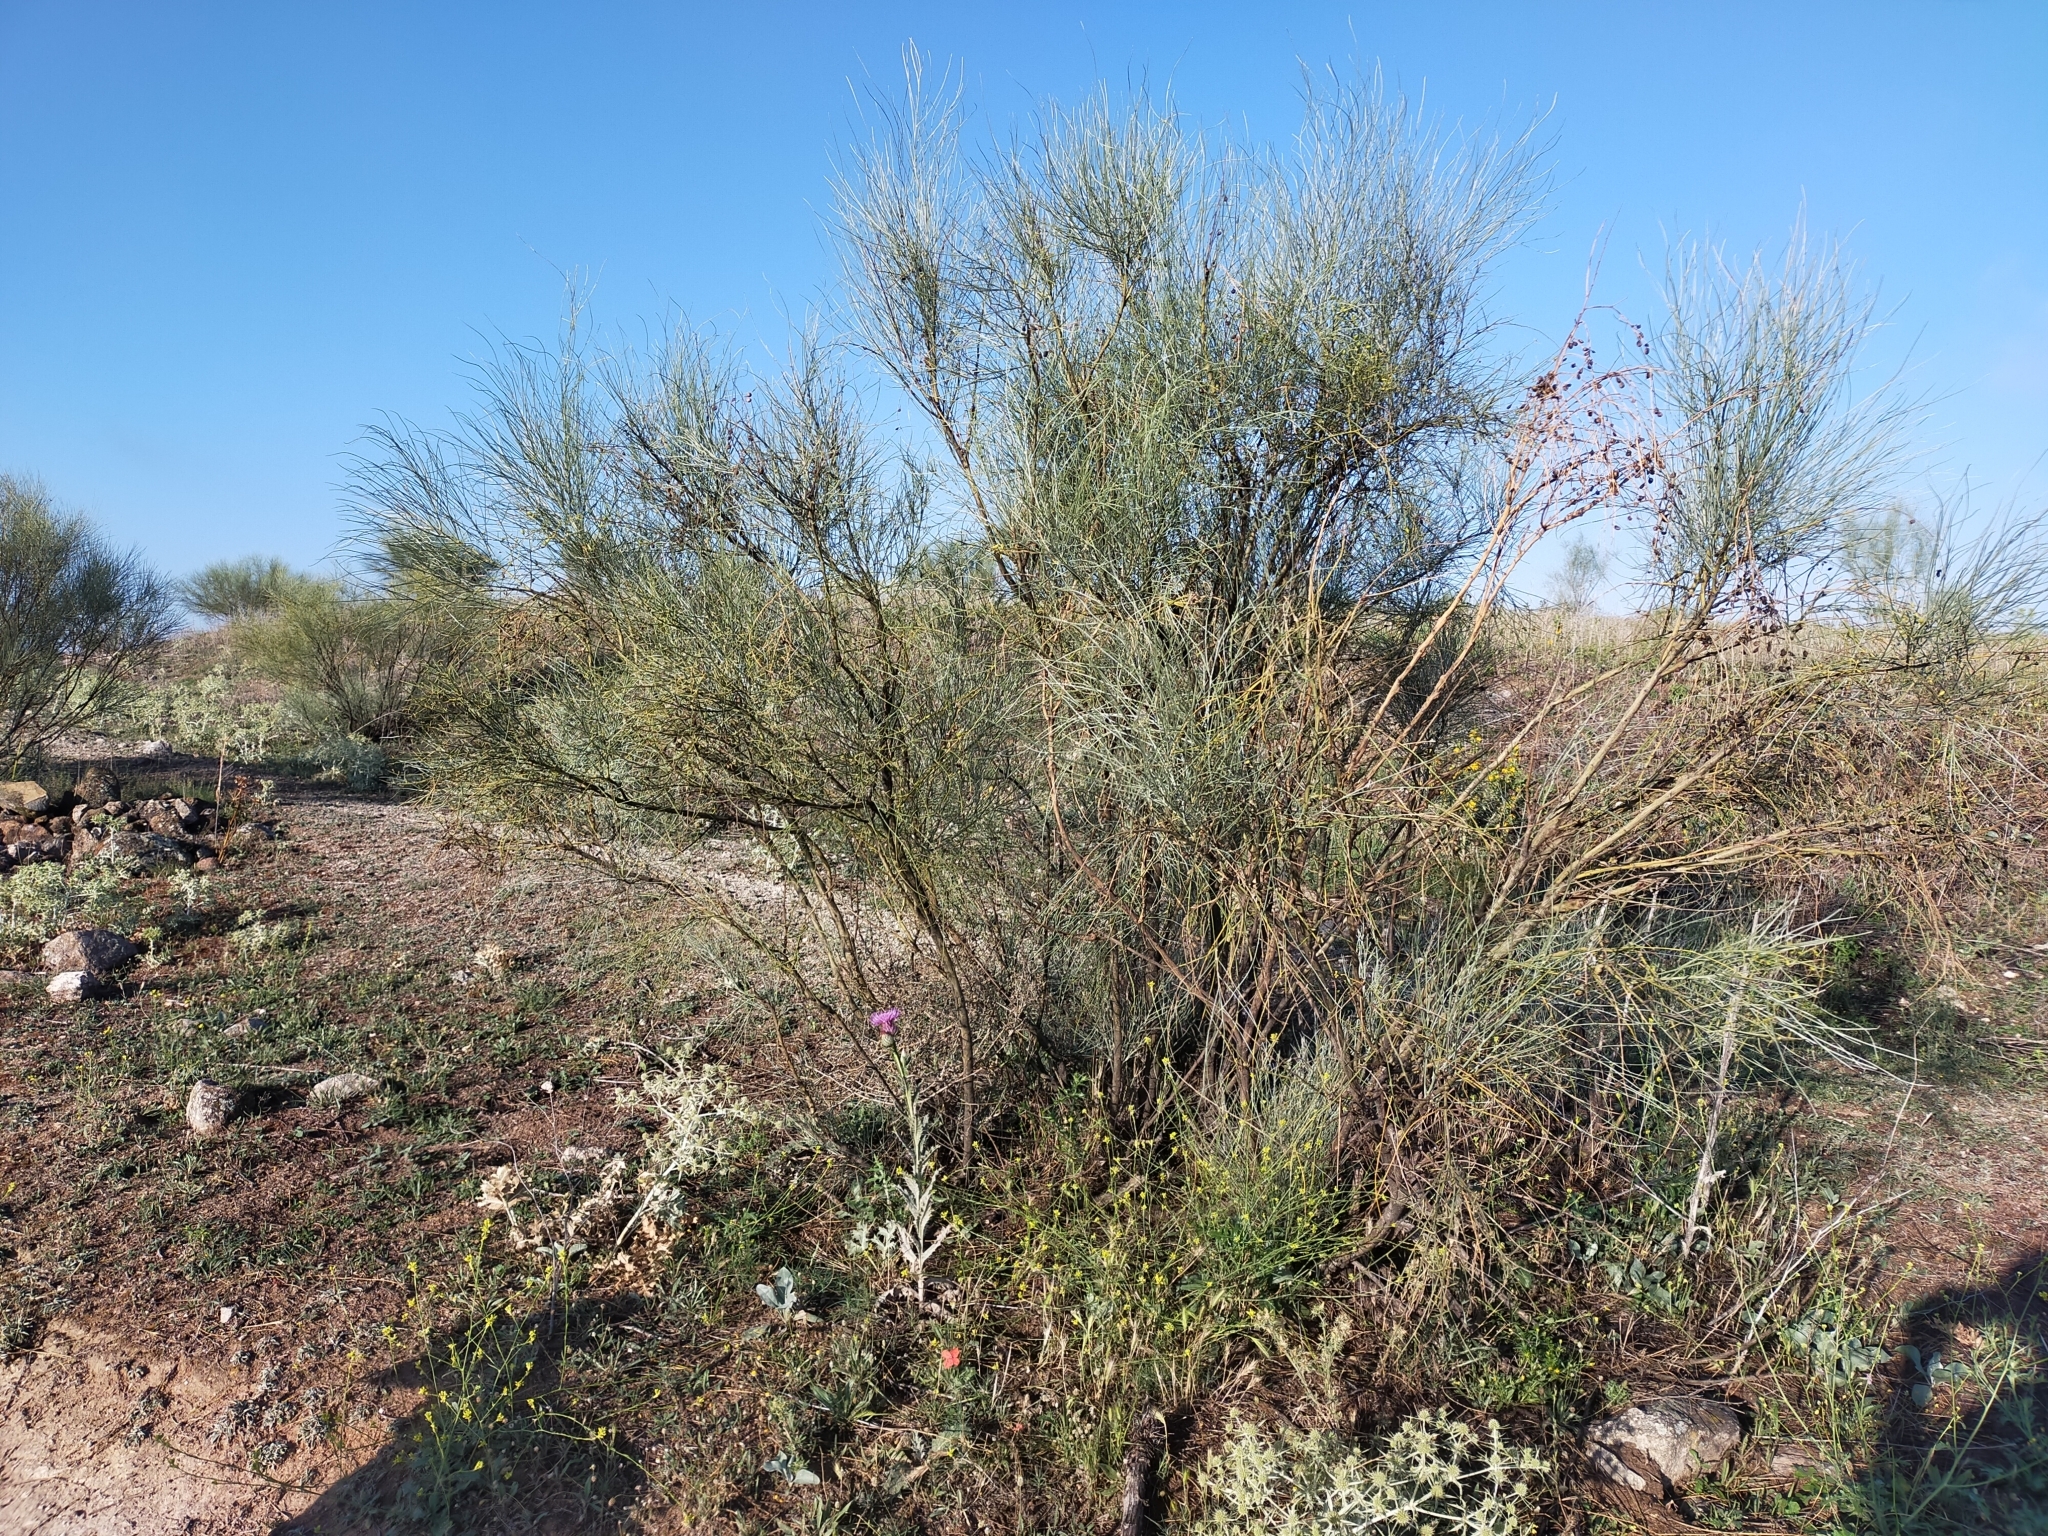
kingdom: Plantae
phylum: Tracheophyta
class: Magnoliopsida
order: Fabales
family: Fabaceae
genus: Retama
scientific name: Retama sphaerocarpa
